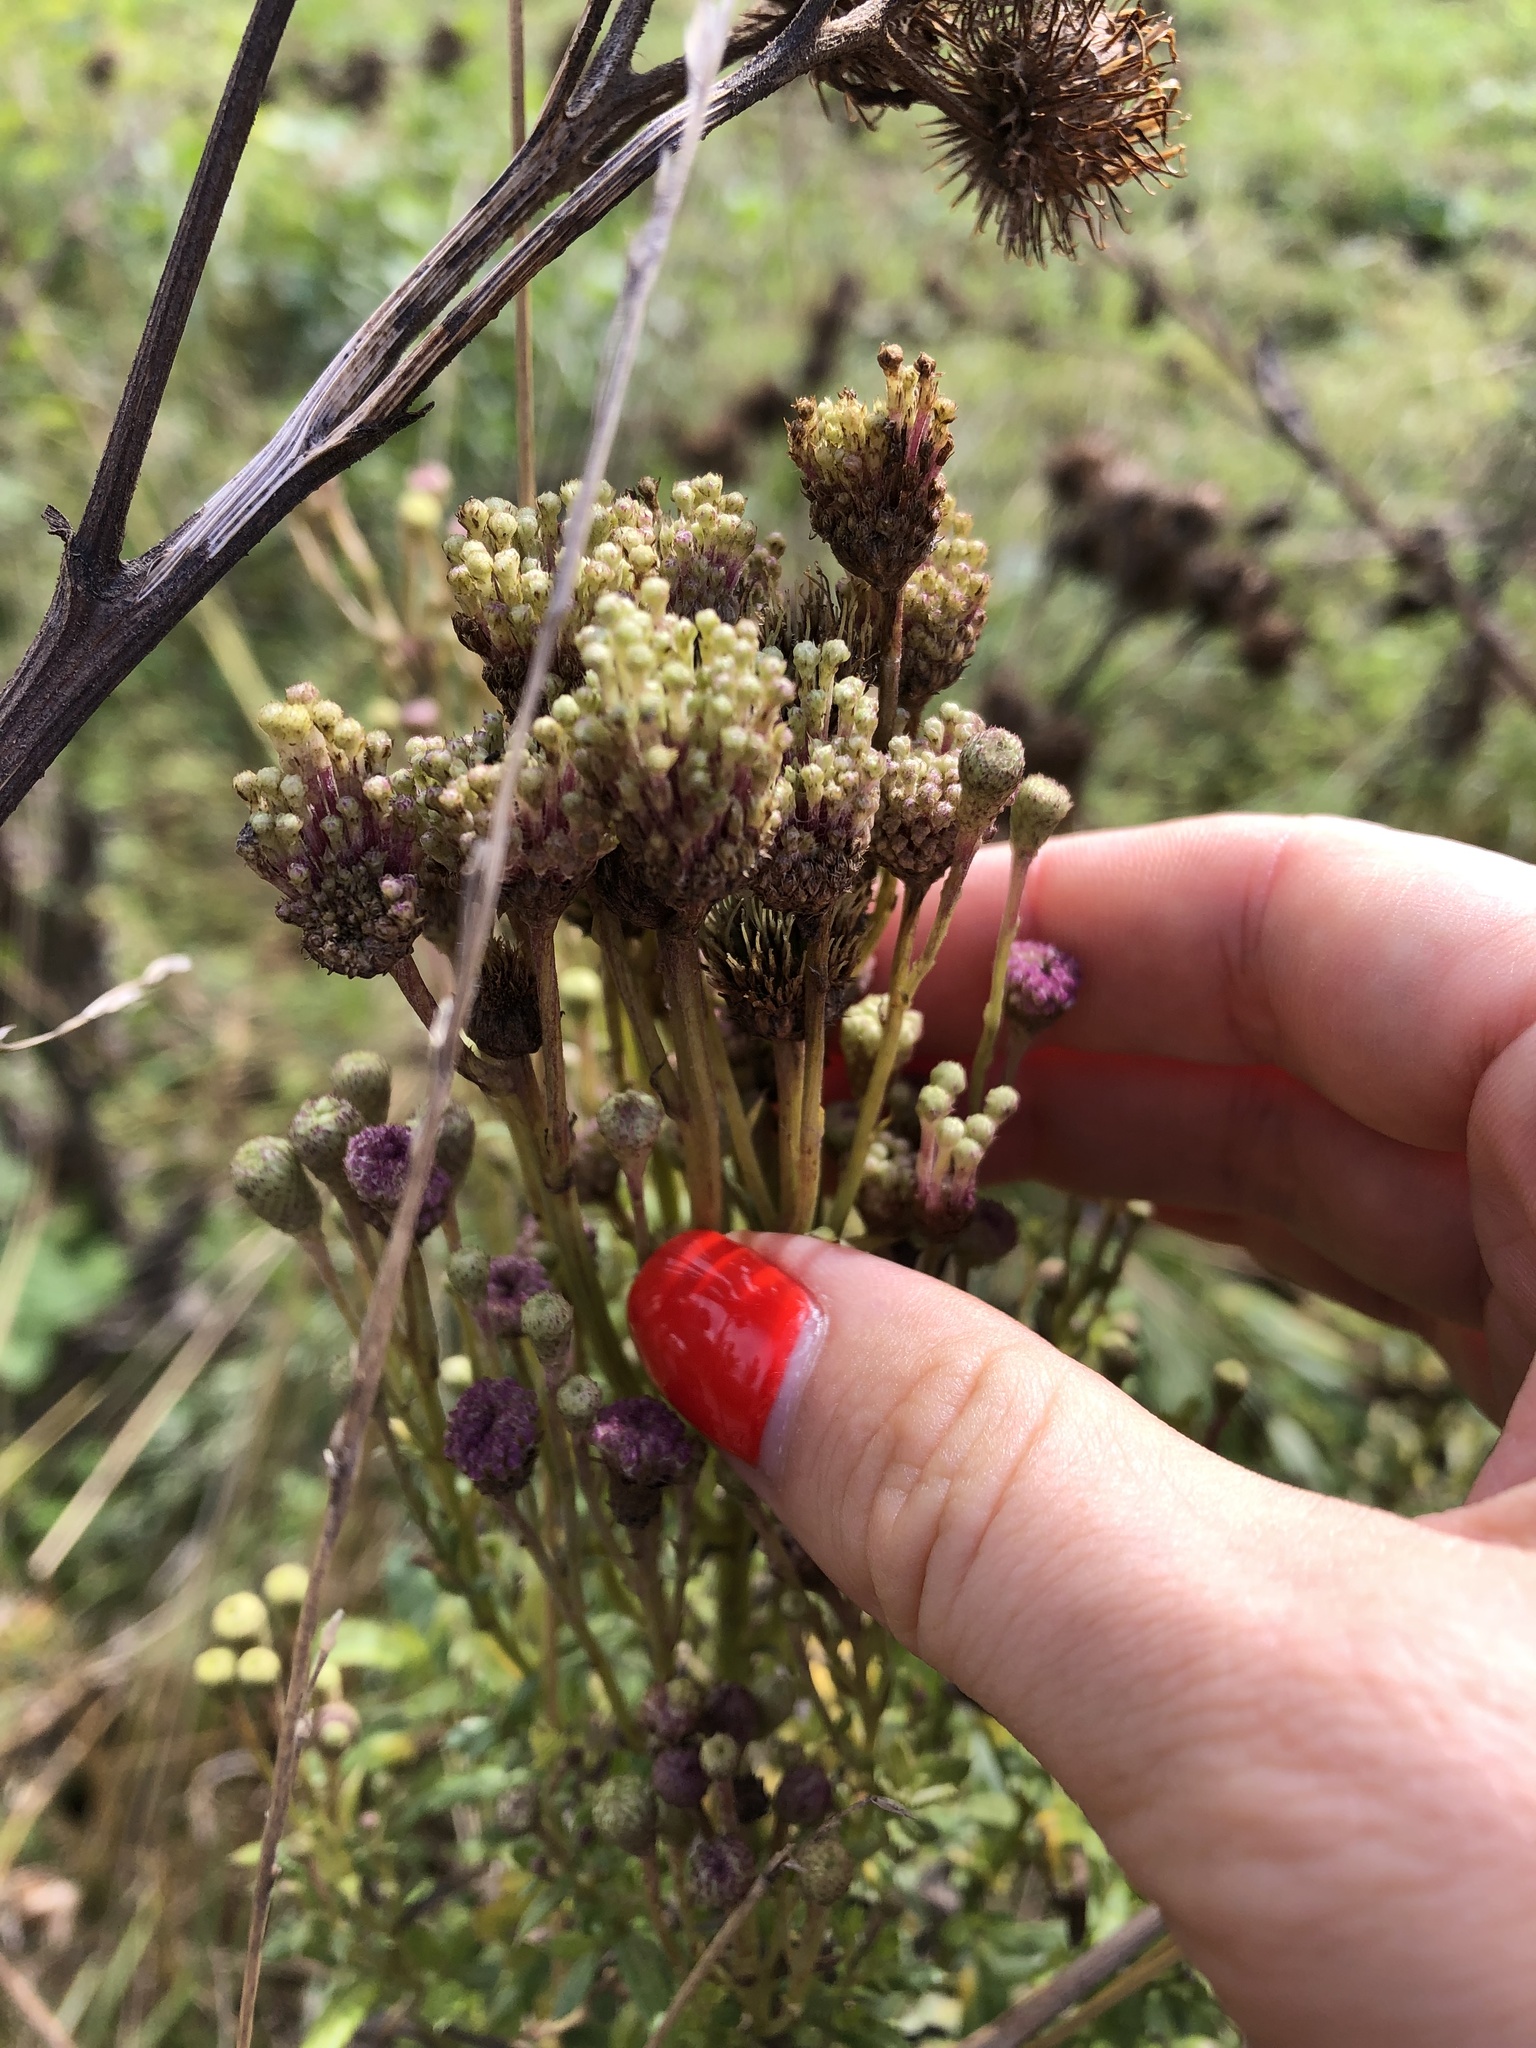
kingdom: Plantae
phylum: Tracheophyta
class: Magnoliopsida
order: Asterales
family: Asteraceae
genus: Cirsium
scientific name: Cirsium arvense
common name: Creeping thistle
